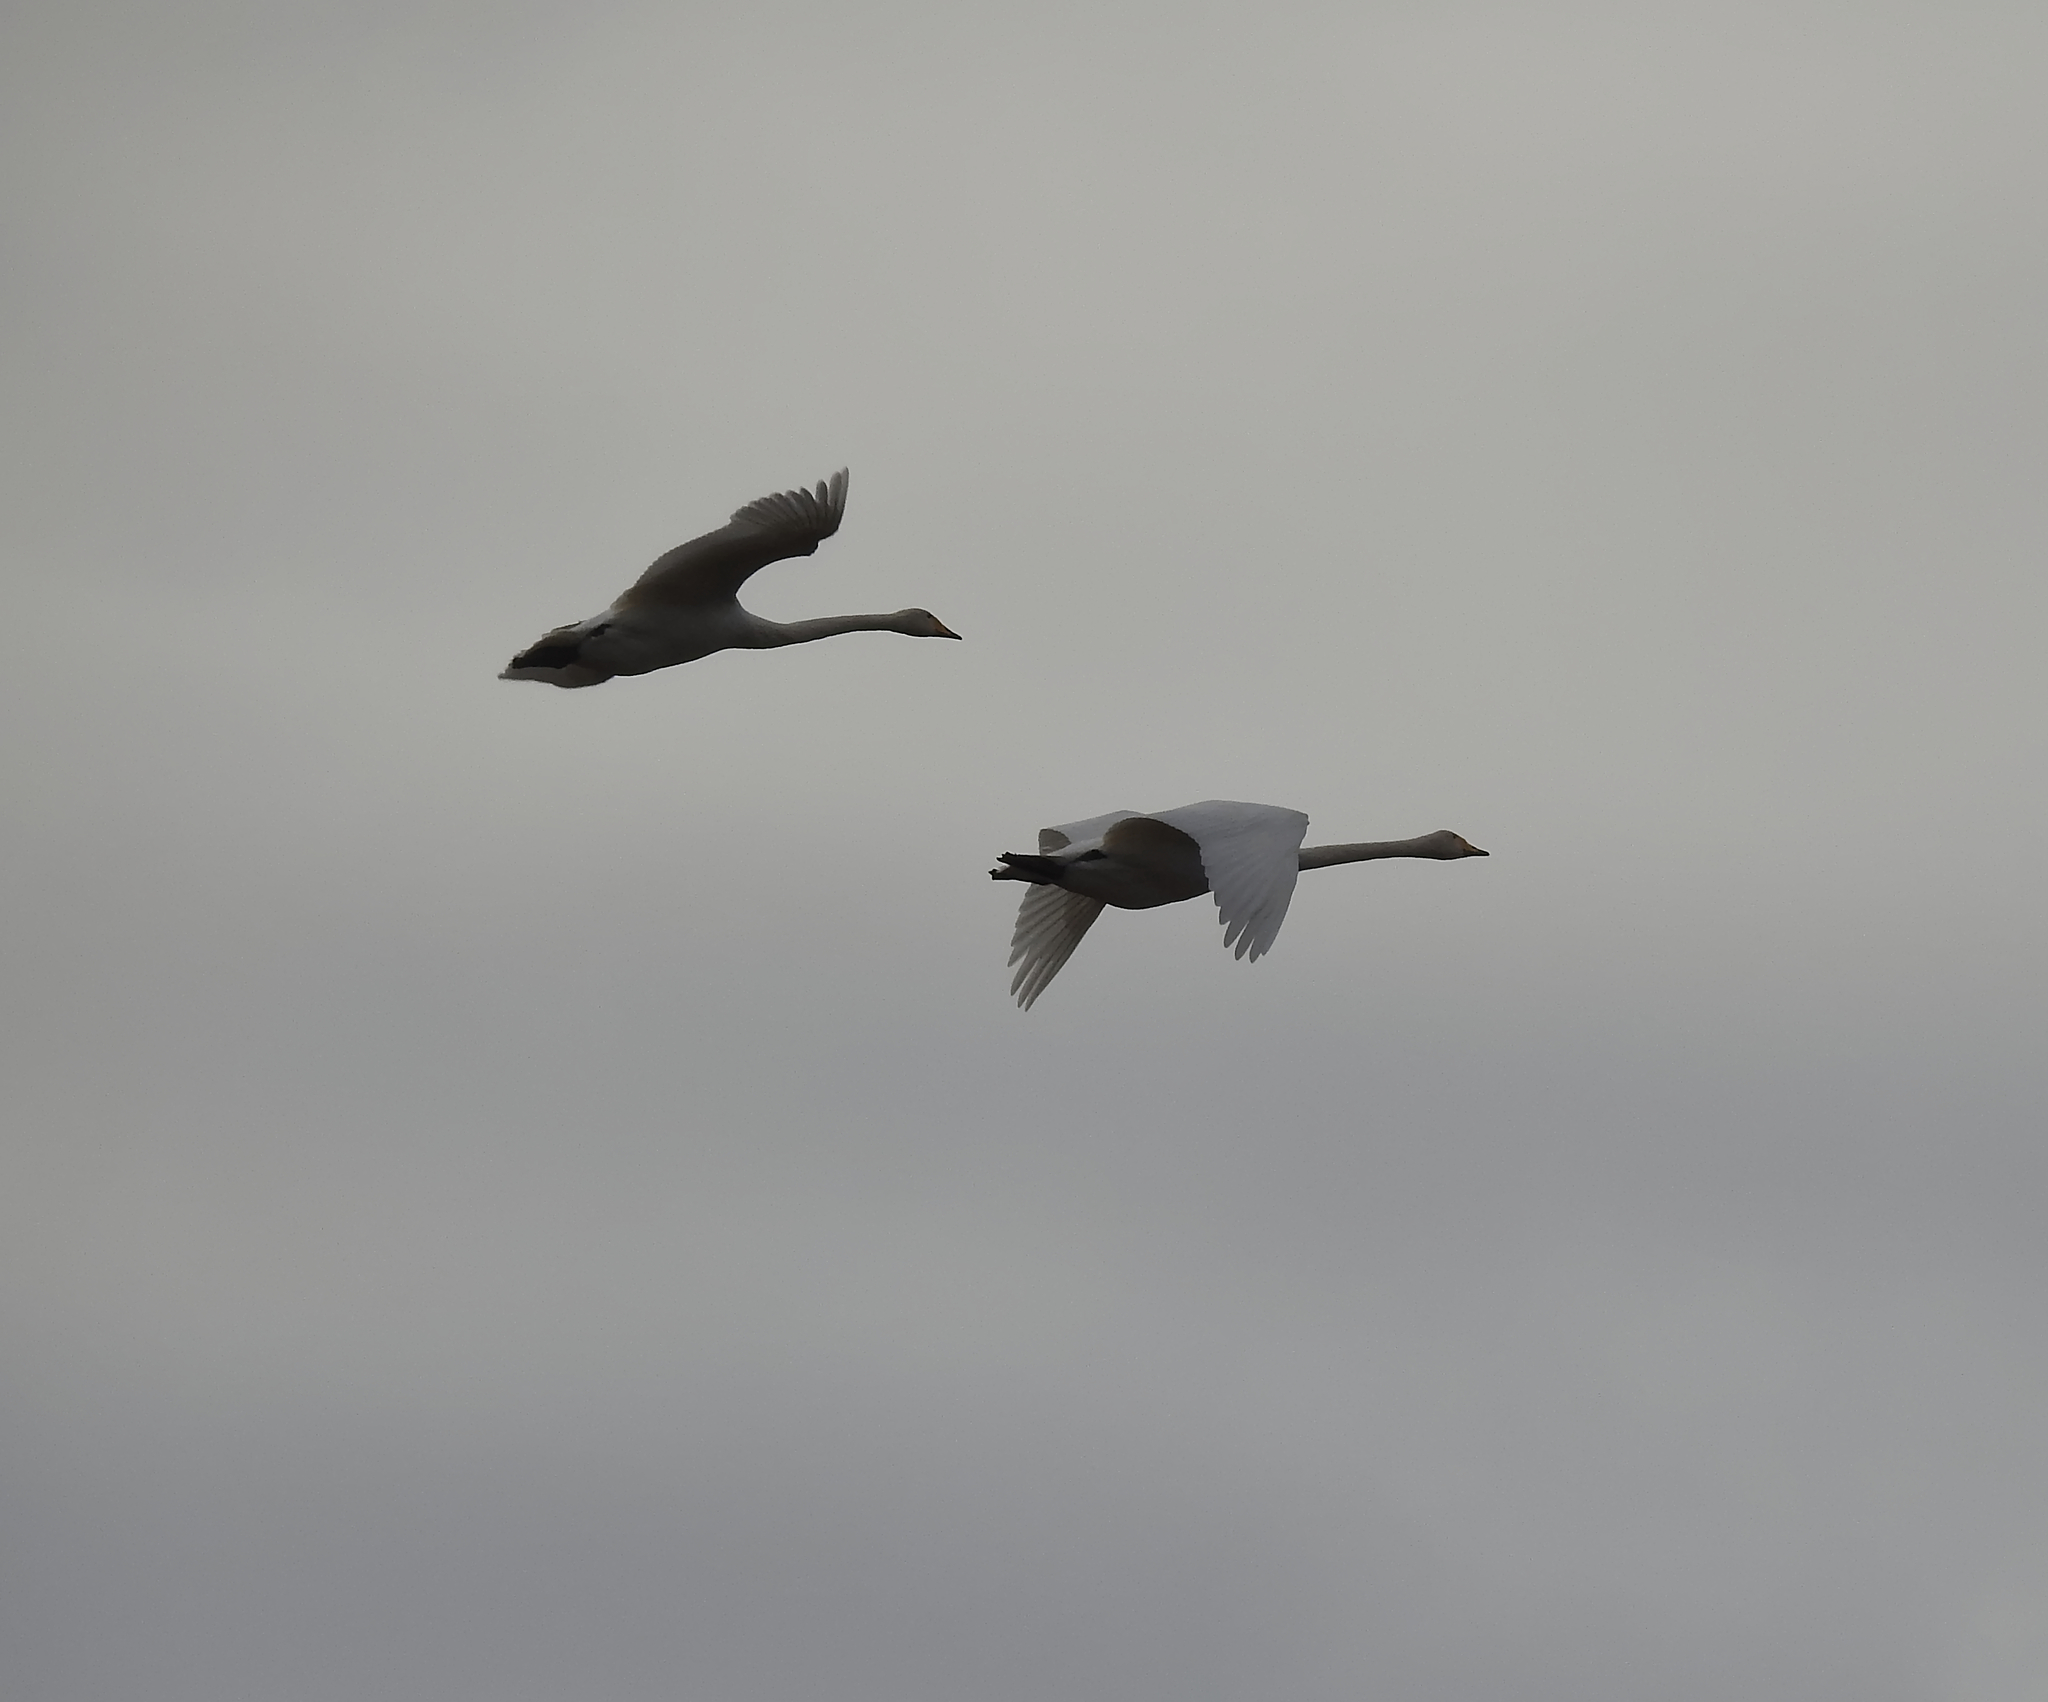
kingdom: Animalia
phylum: Chordata
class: Aves
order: Anseriformes
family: Anatidae
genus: Cygnus
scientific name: Cygnus cygnus
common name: Whooper swan
